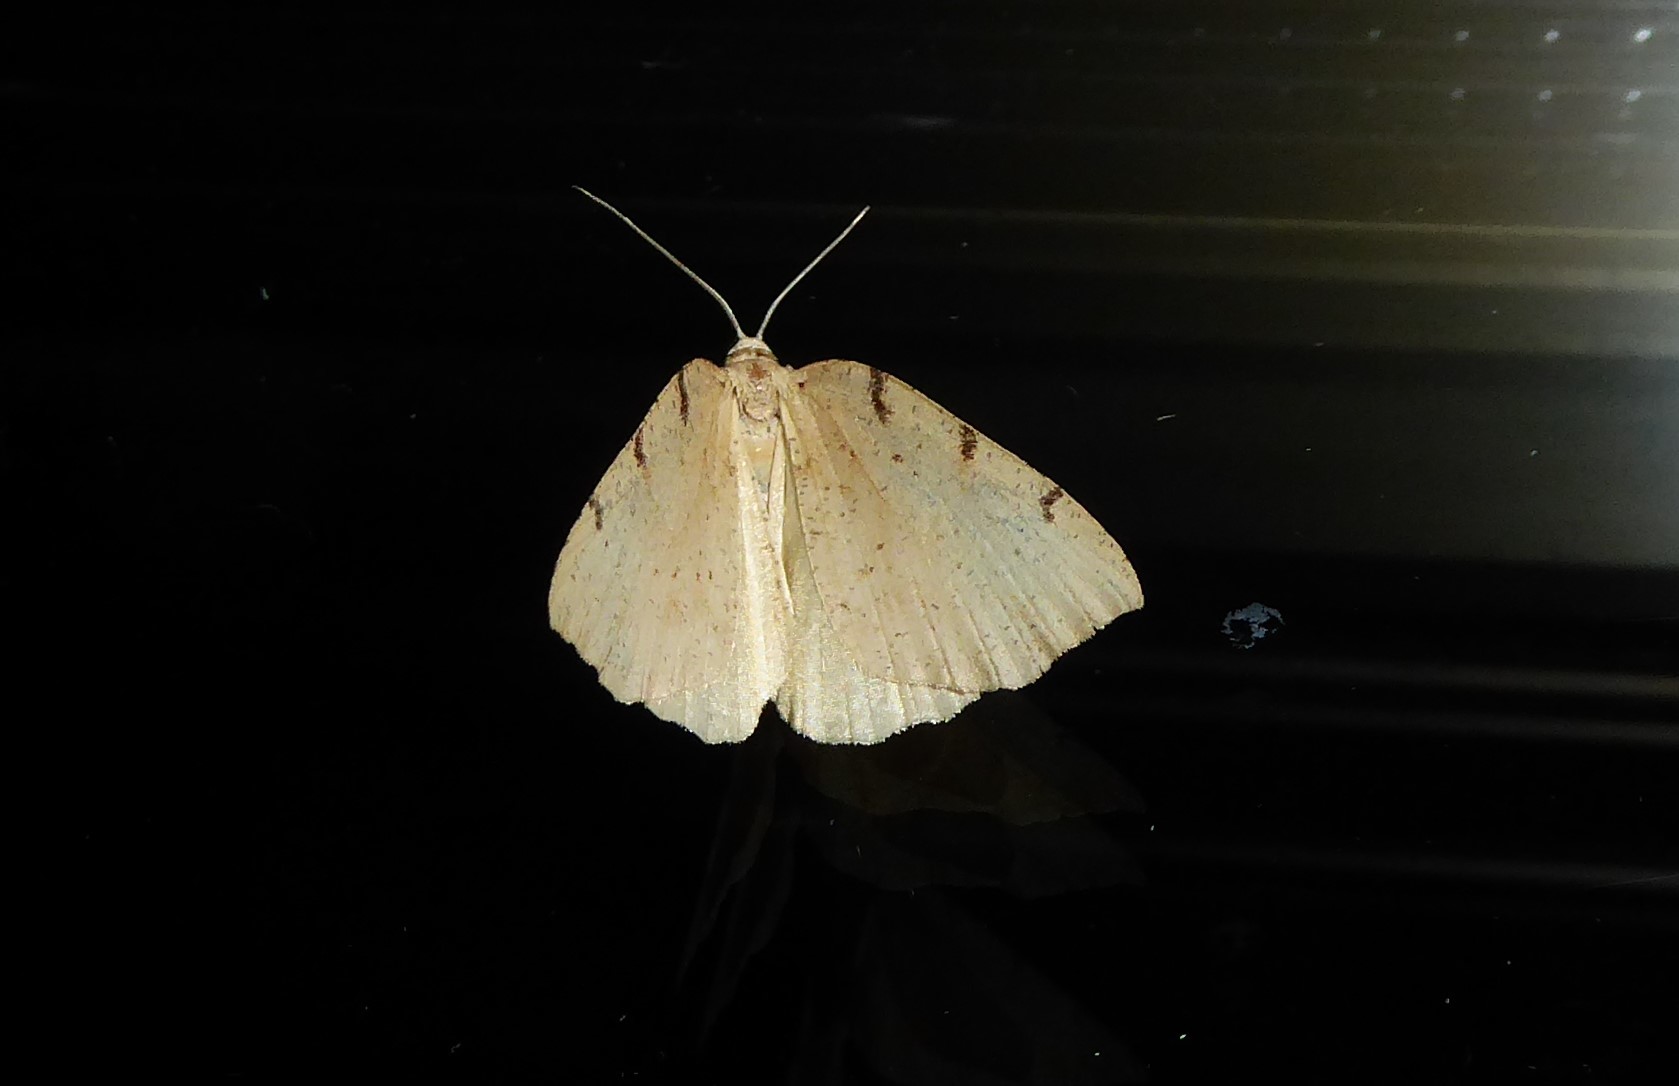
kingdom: Animalia
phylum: Arthropoda
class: Insecta
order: Lepidoptera
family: Geometridae
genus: Sestra
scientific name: Sestra humeraria
